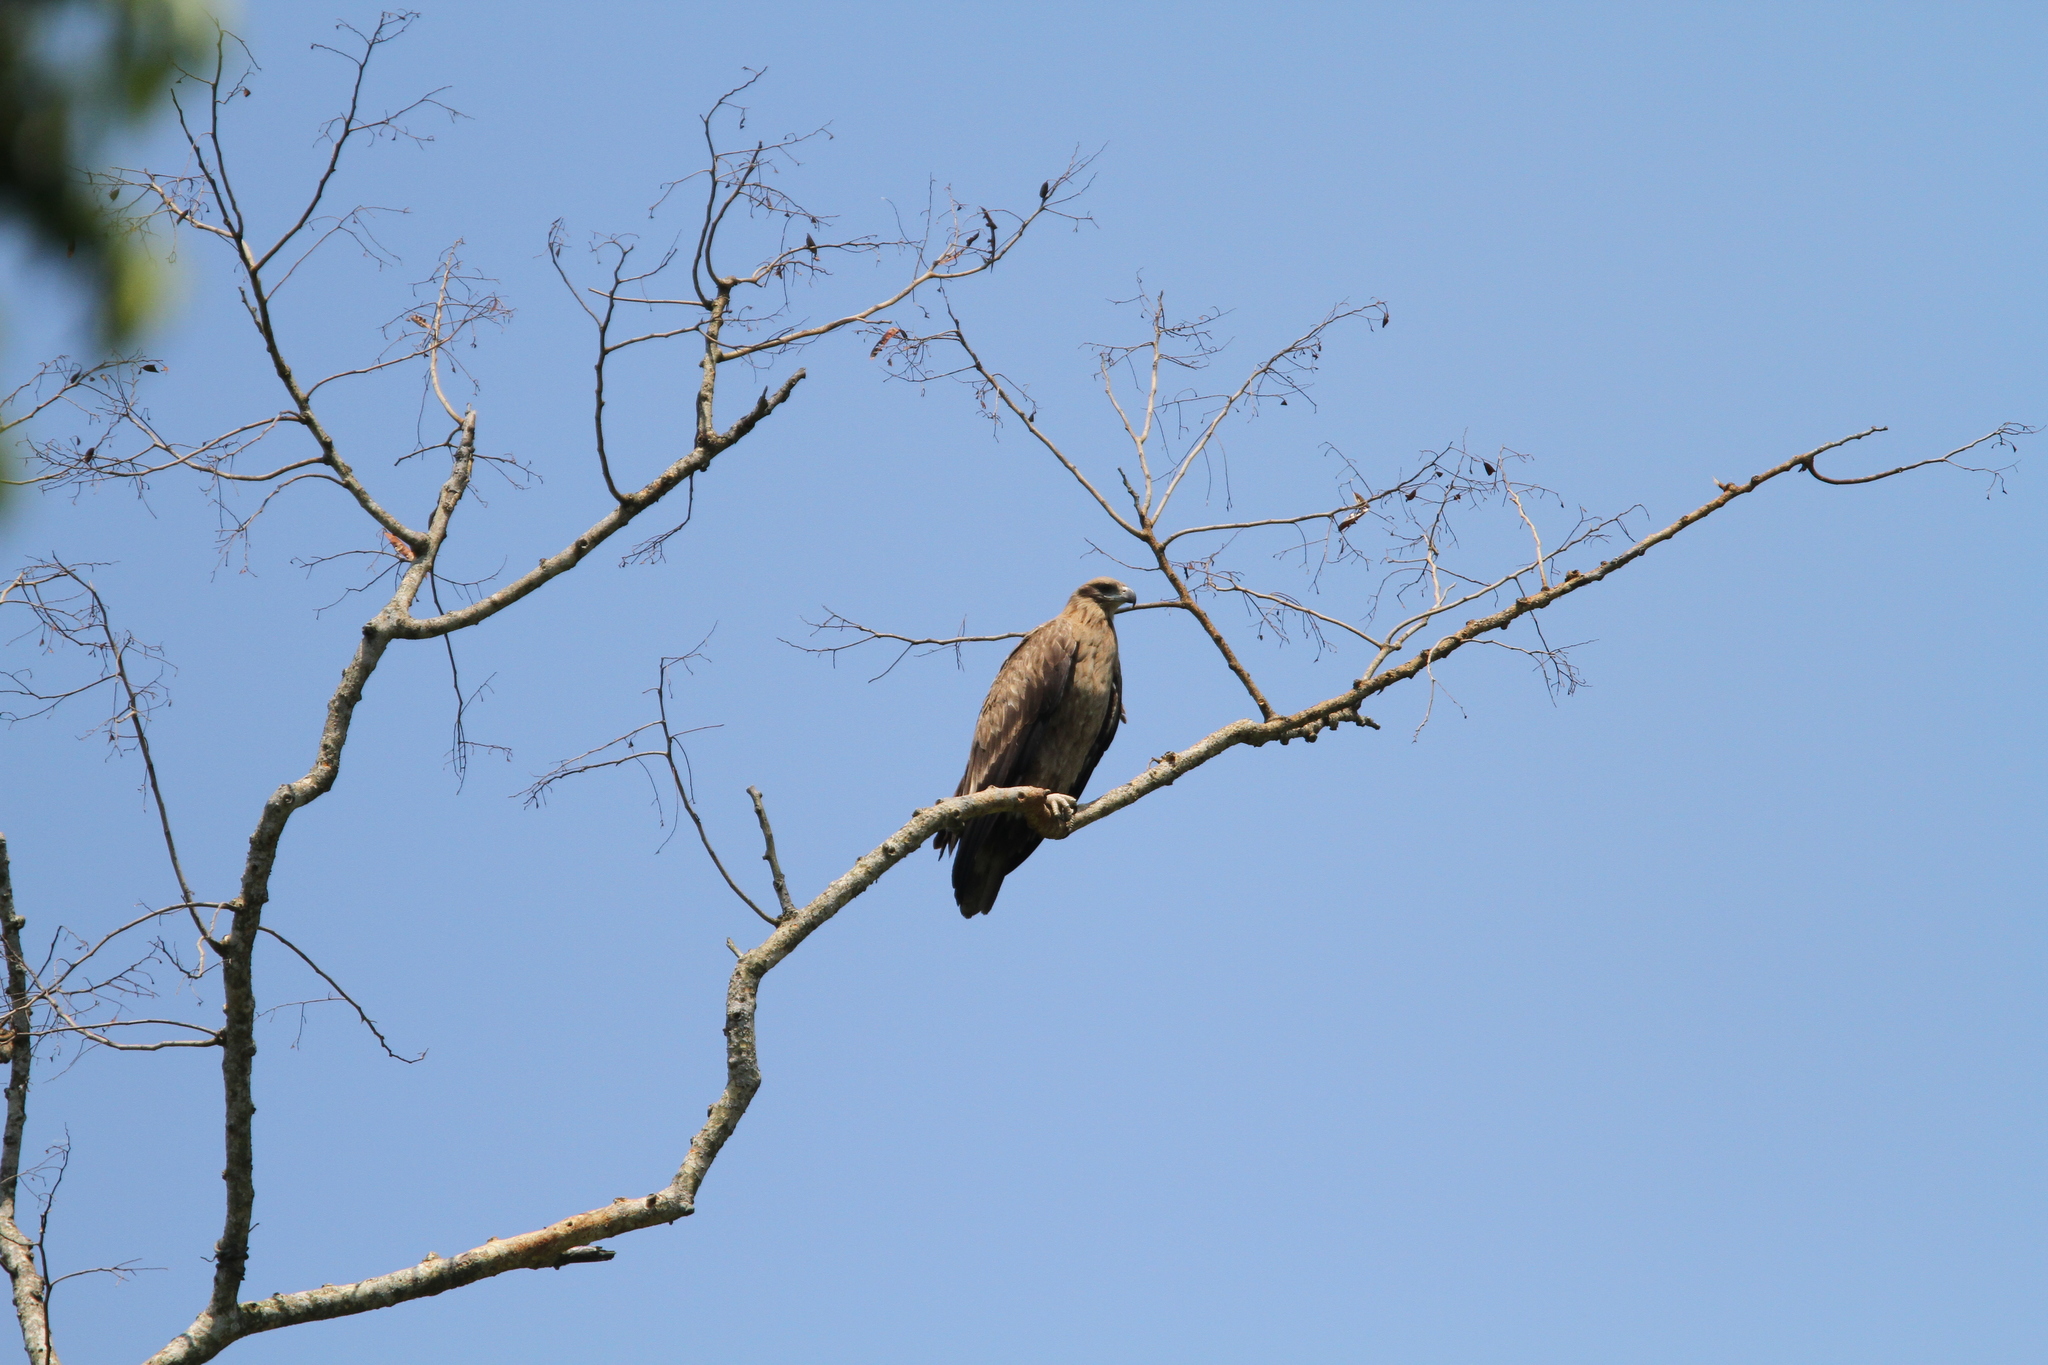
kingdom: Animalia
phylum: Chordata
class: Aves
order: Accipitriformes
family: Accipitridae
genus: Haliaeetus
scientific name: Haliaeetus leucoryphus
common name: Pallas's fish eagle
